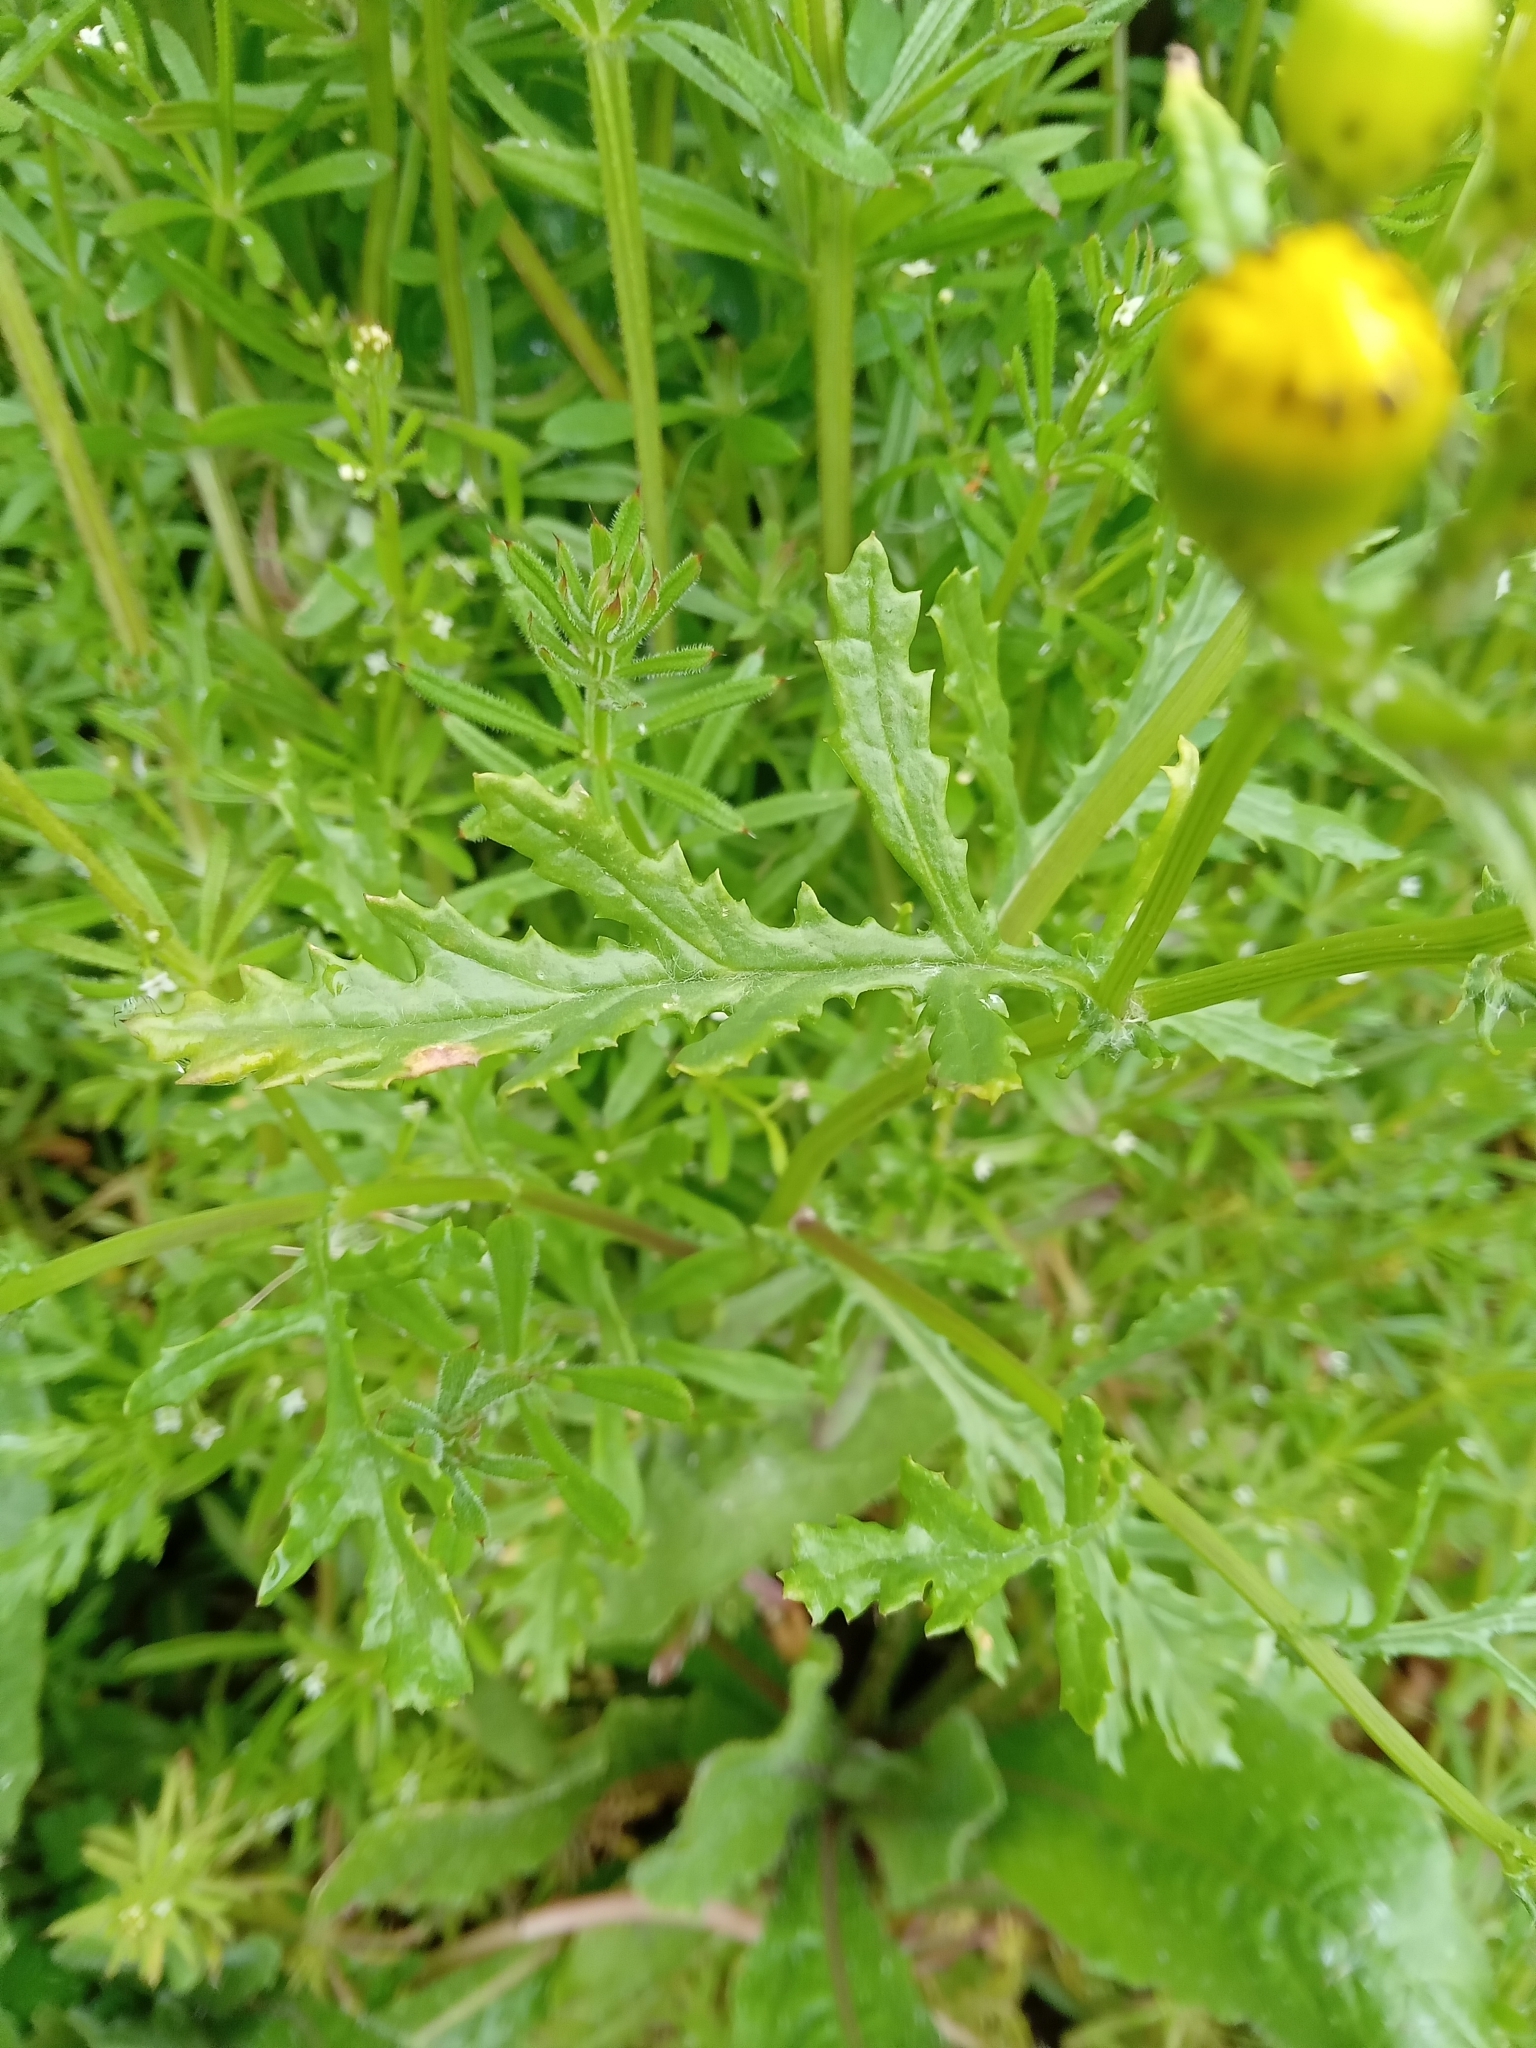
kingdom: Plantae
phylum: Tracheophyta
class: Magnoliopsida
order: Asterales
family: Asteraceae
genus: Senecio
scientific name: Senecio squalidus
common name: Oxford ragwort
